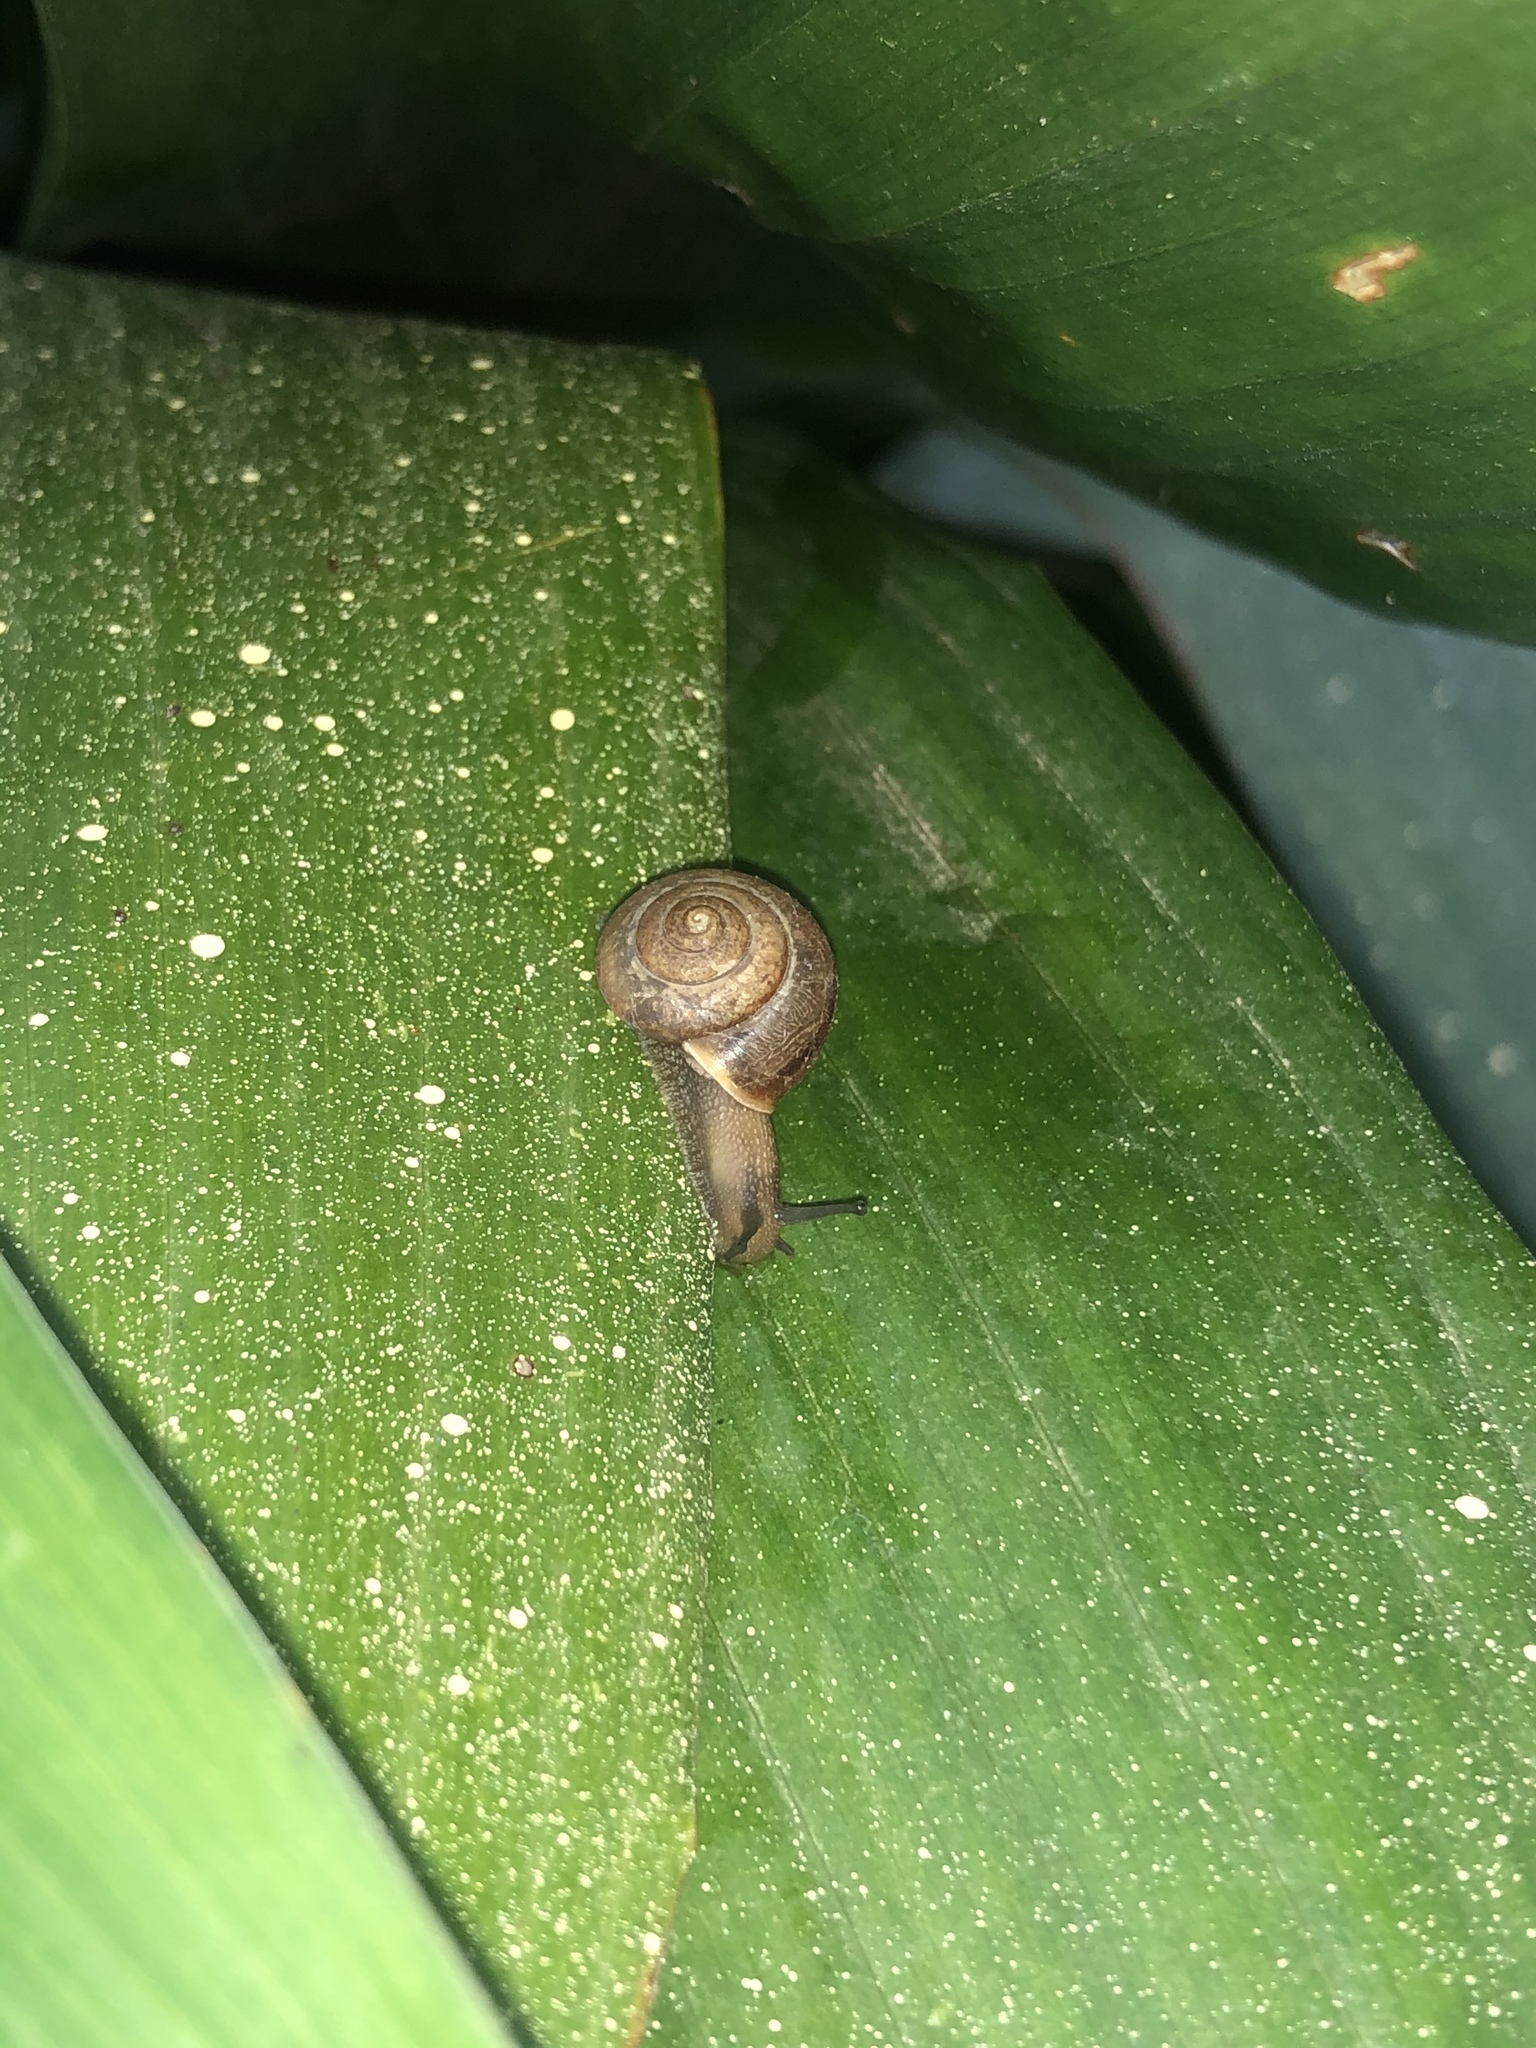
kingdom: Animalia
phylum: Mollusca
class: Gastropoda
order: Stylommatophora
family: Camaenidae
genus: Bradybaena
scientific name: Bradybaena similaris
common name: Asian trampsnail
